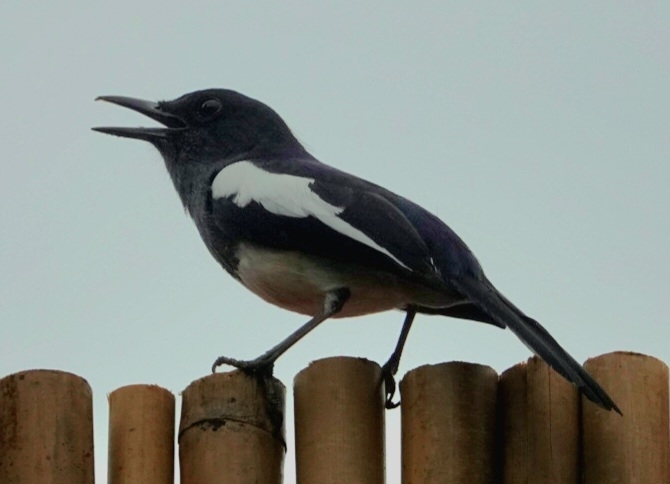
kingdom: Animalia
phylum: Chordata
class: Aves
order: Passeriformes
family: Muscicapidae
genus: Copsychus
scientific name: Copsychus saularis
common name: Oriental magpie-robin
